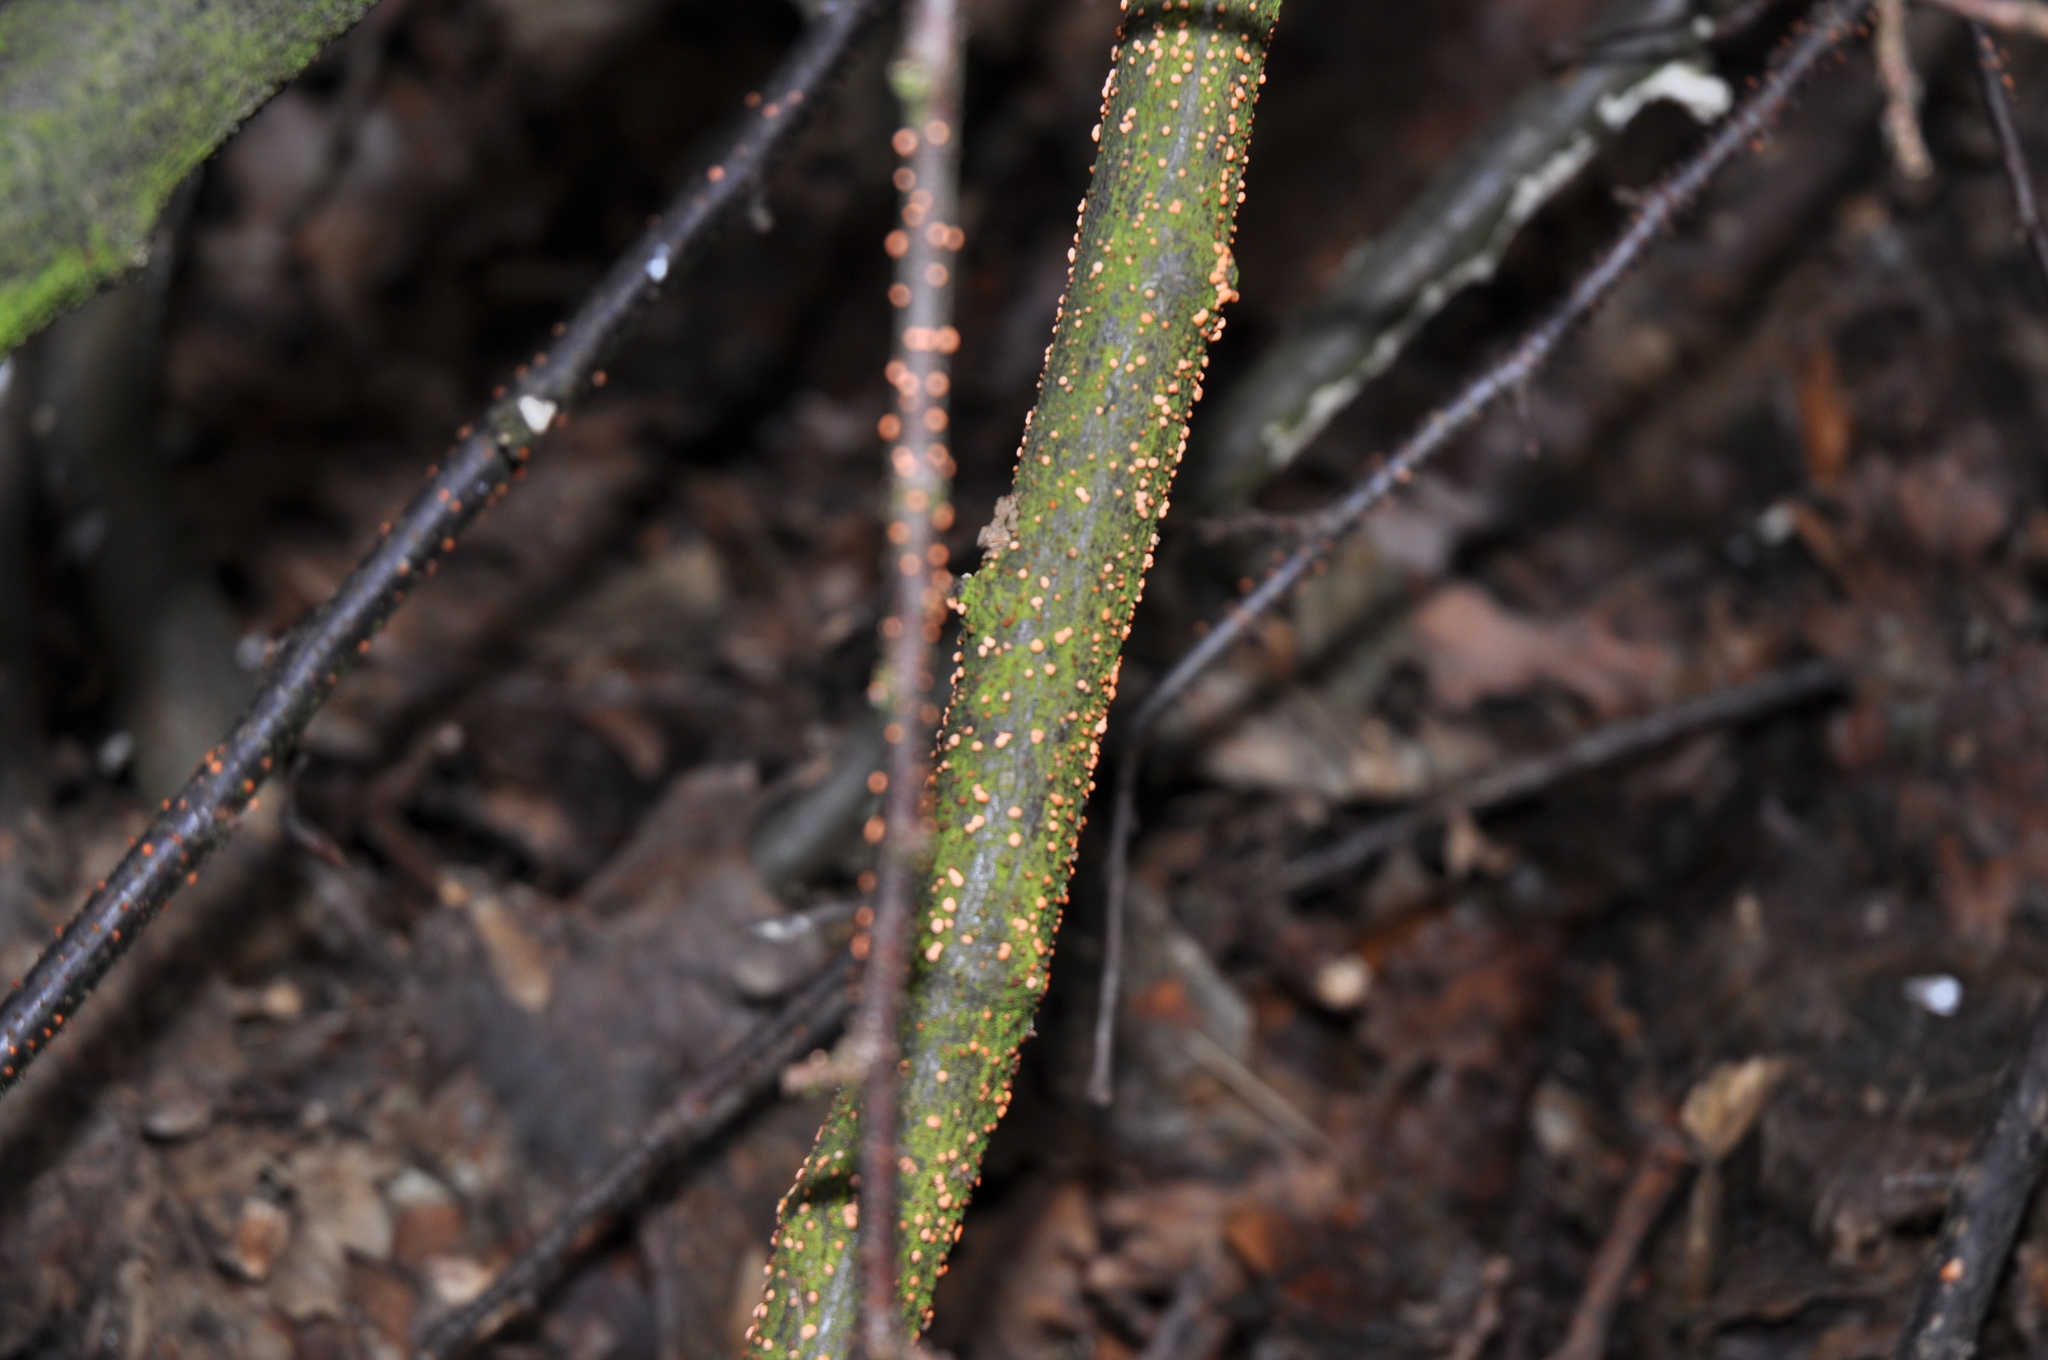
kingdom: Fungi
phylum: Ascomycota
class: Sordariomycetes
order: Hypocreales
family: Nectriaceae
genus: Nectria
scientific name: Nectria cinnabarina
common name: Coral spot
